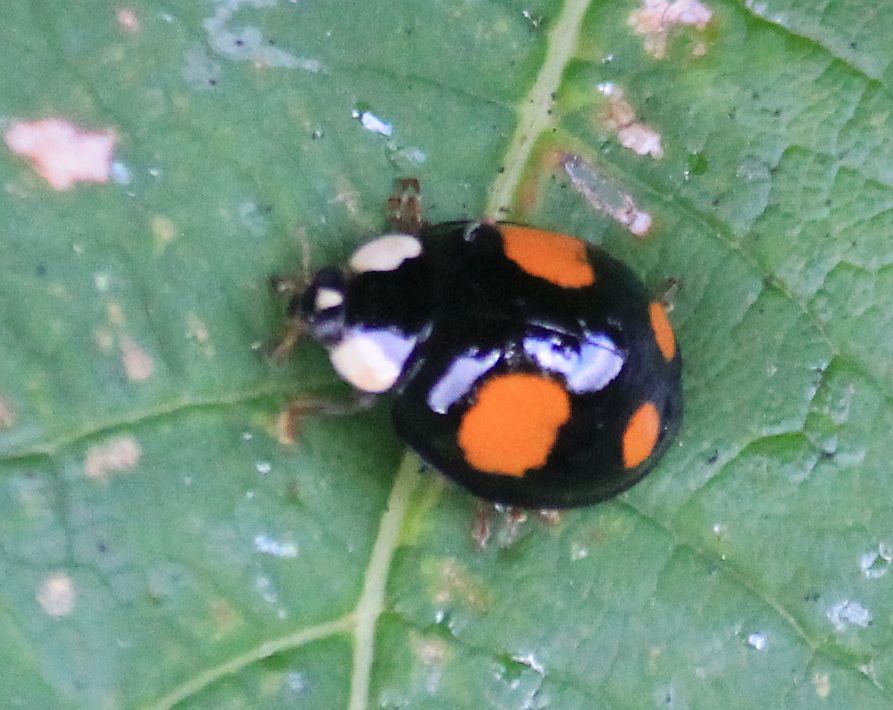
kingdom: Animalia
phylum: Arthropoda
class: Insecta
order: Coleoptera
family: Coccinellidae
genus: Harmonia
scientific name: Harmonia axyridis
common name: Harlequin ladybird
